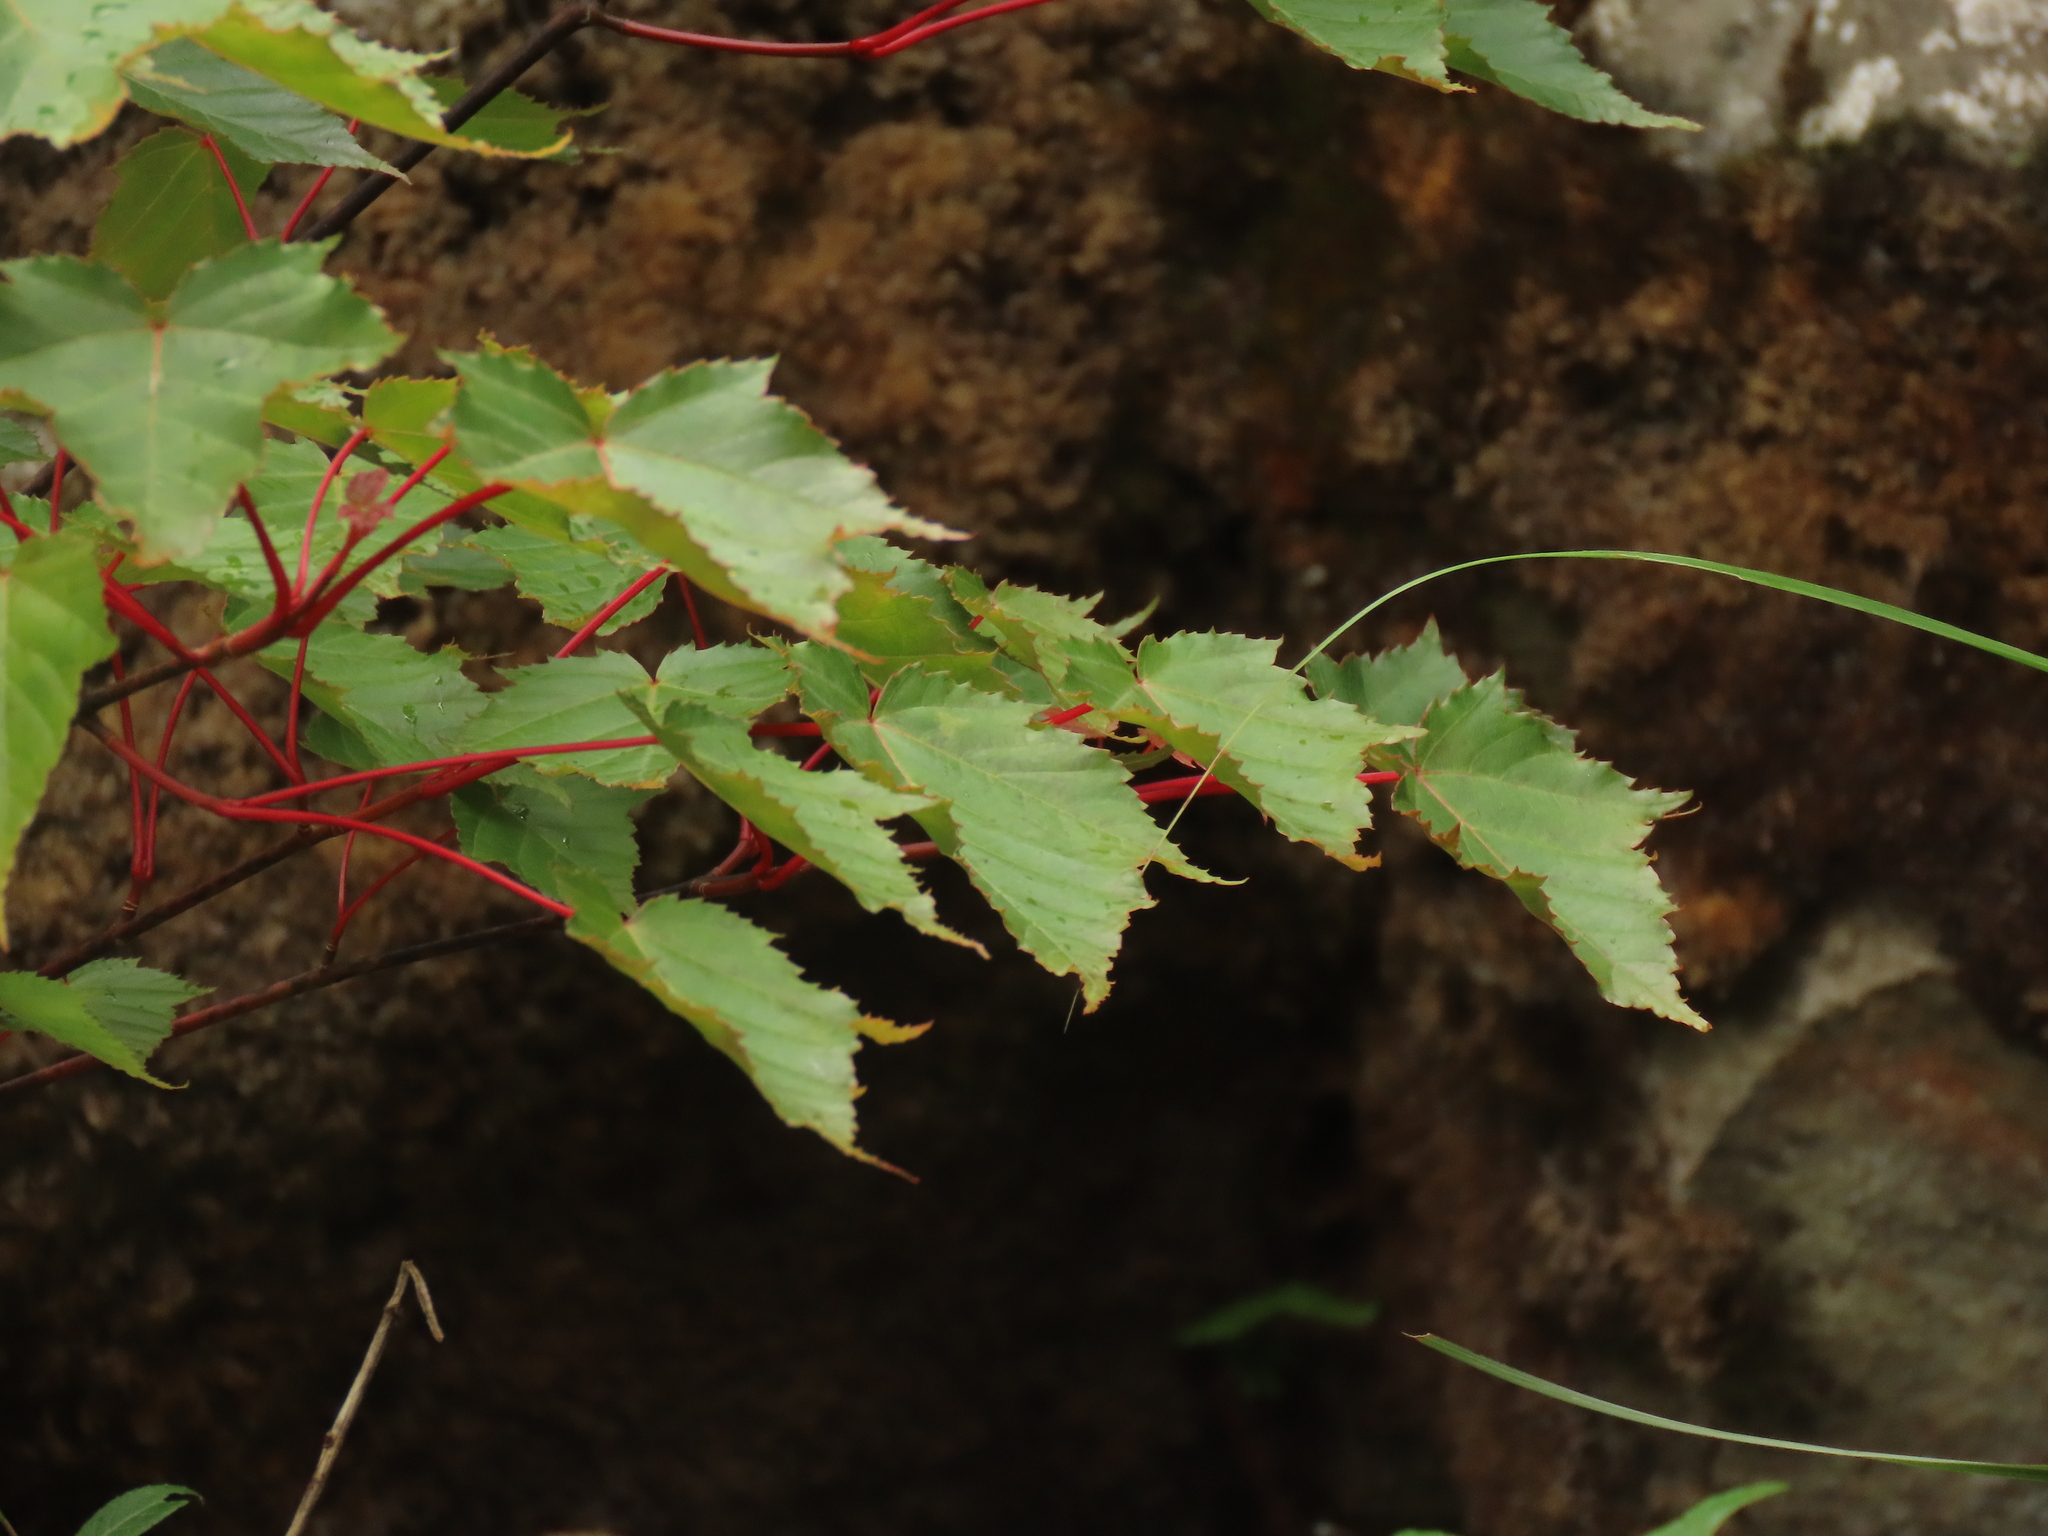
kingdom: Plantae
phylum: Tracheophyta
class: Magnoliopsida
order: Sapindales
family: Sapindaceae
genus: Acer
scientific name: Acer caudatifolium
